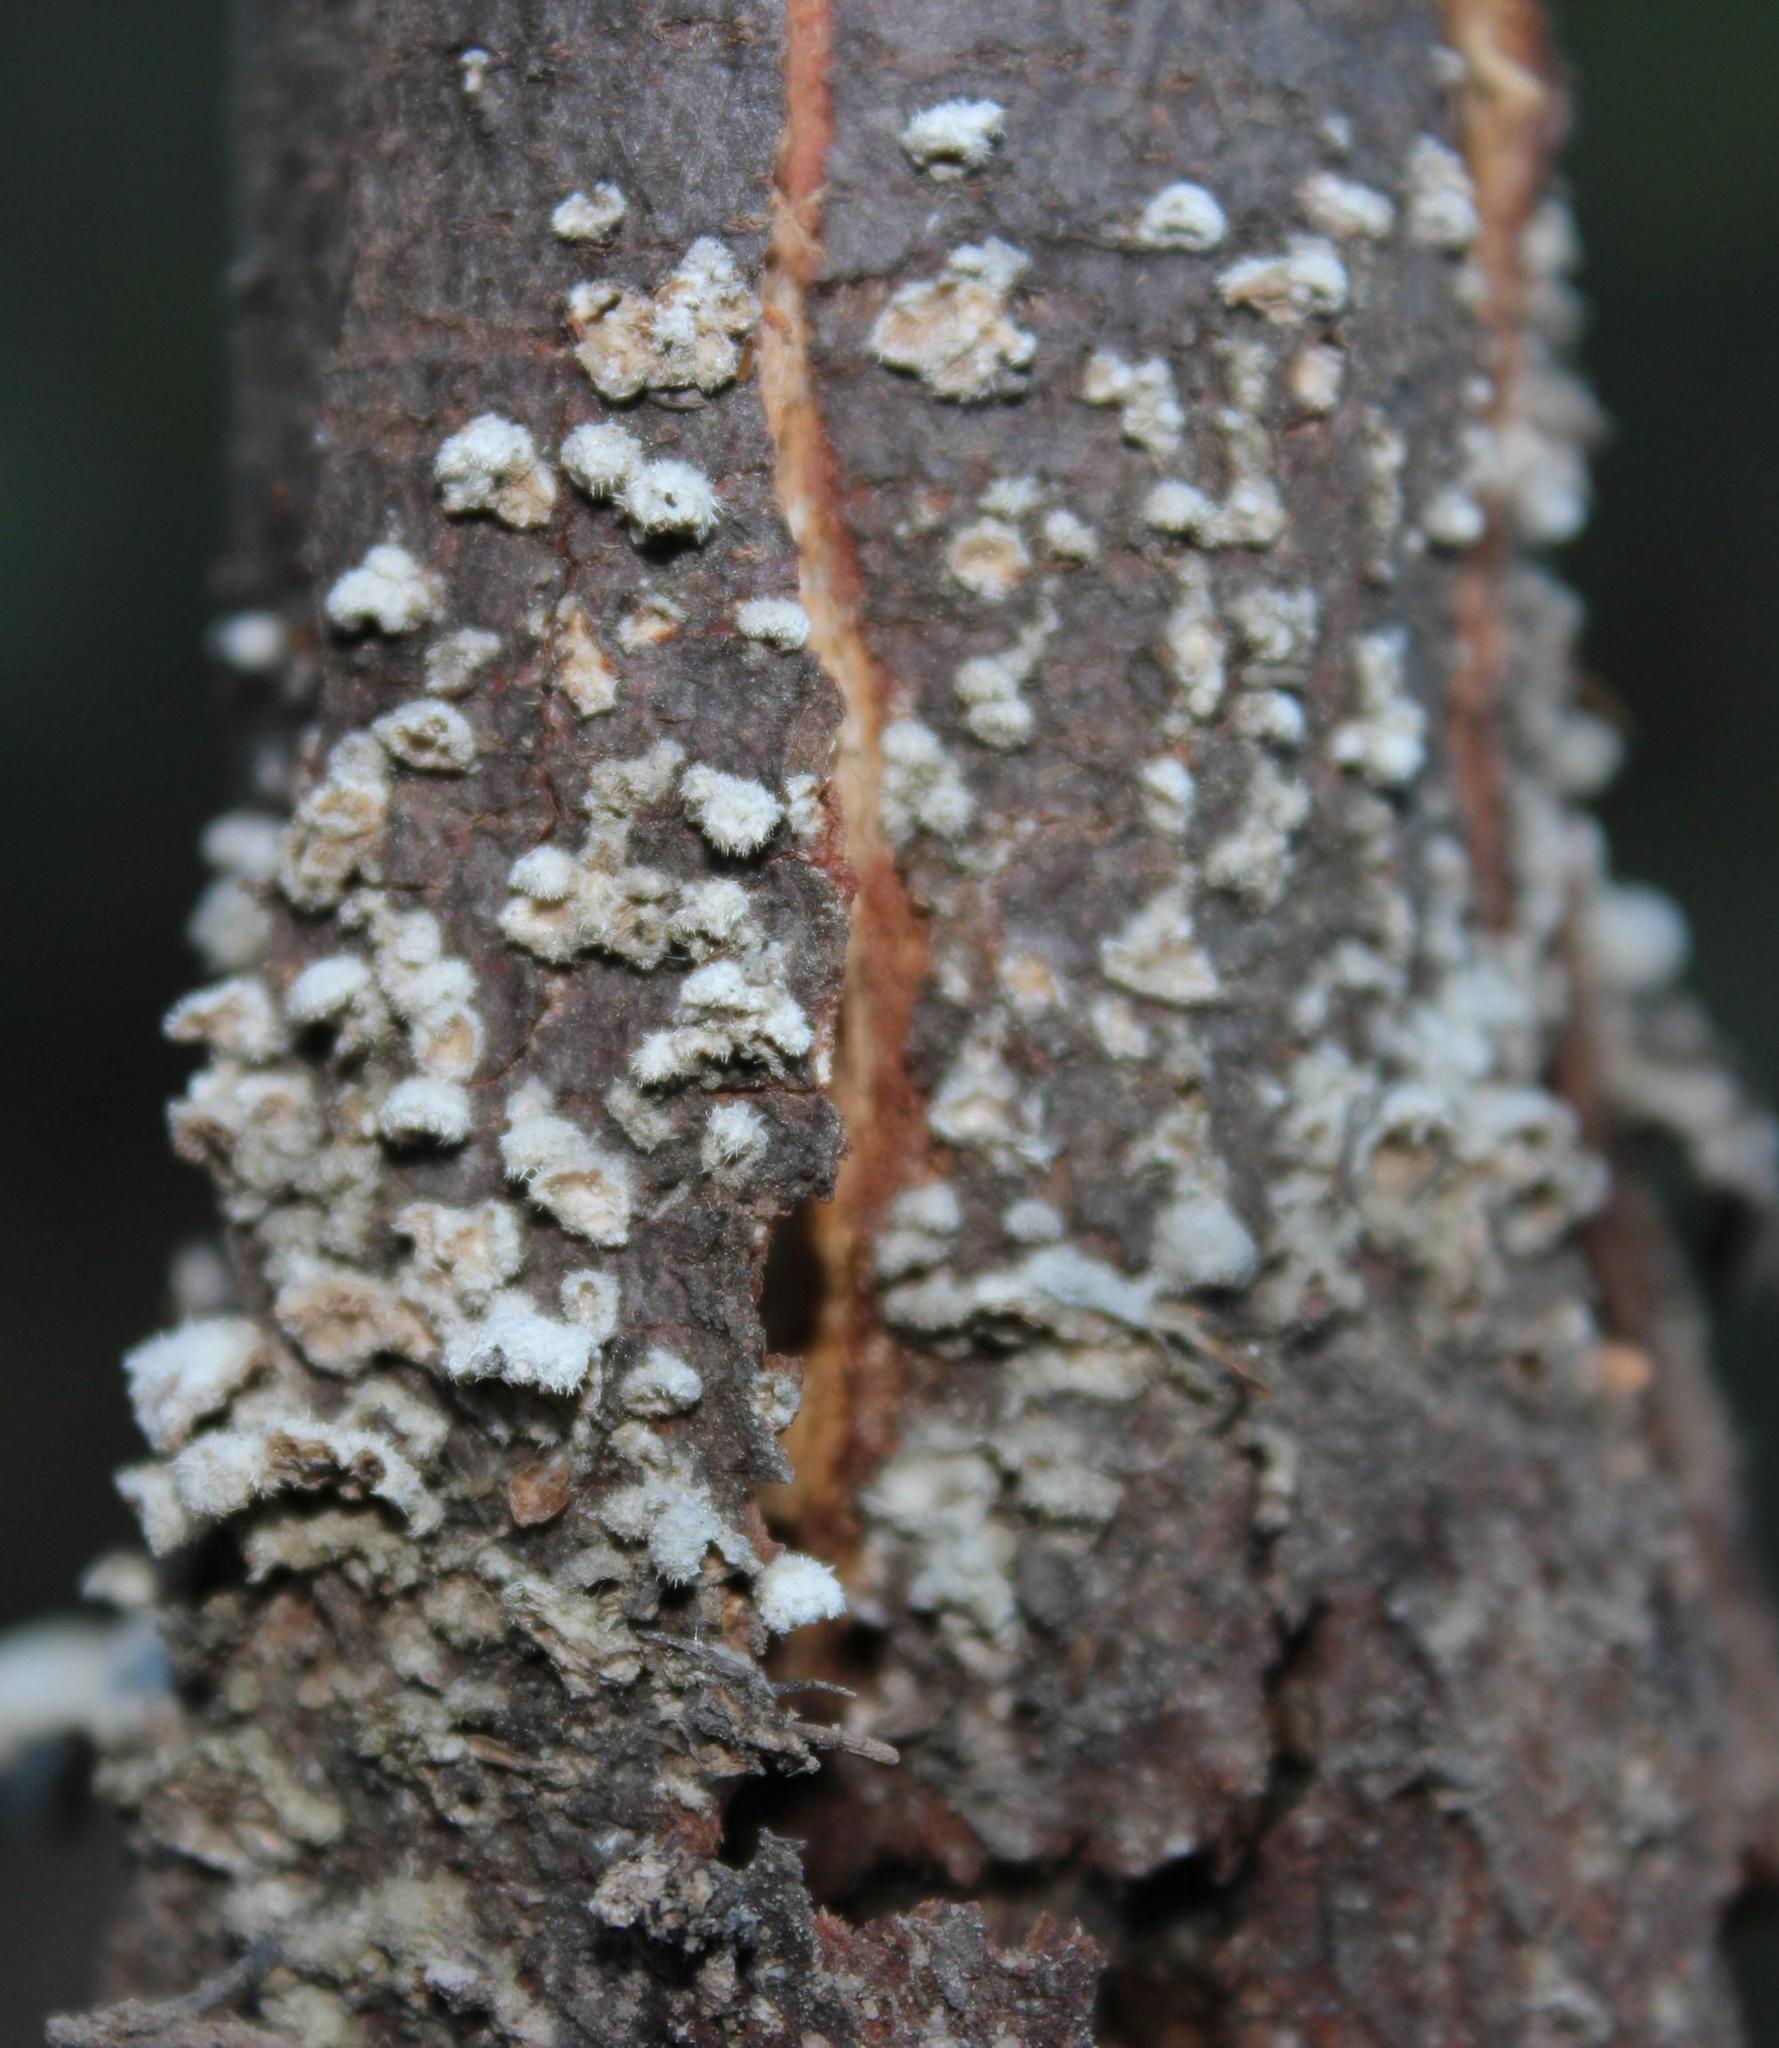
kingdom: Fungi
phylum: Basidiomycota
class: Agaricomycetes
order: Agaricales
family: Schizophyllaceae
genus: Schizophyllum
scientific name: Schizophyllum commune
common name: Common porecrust
